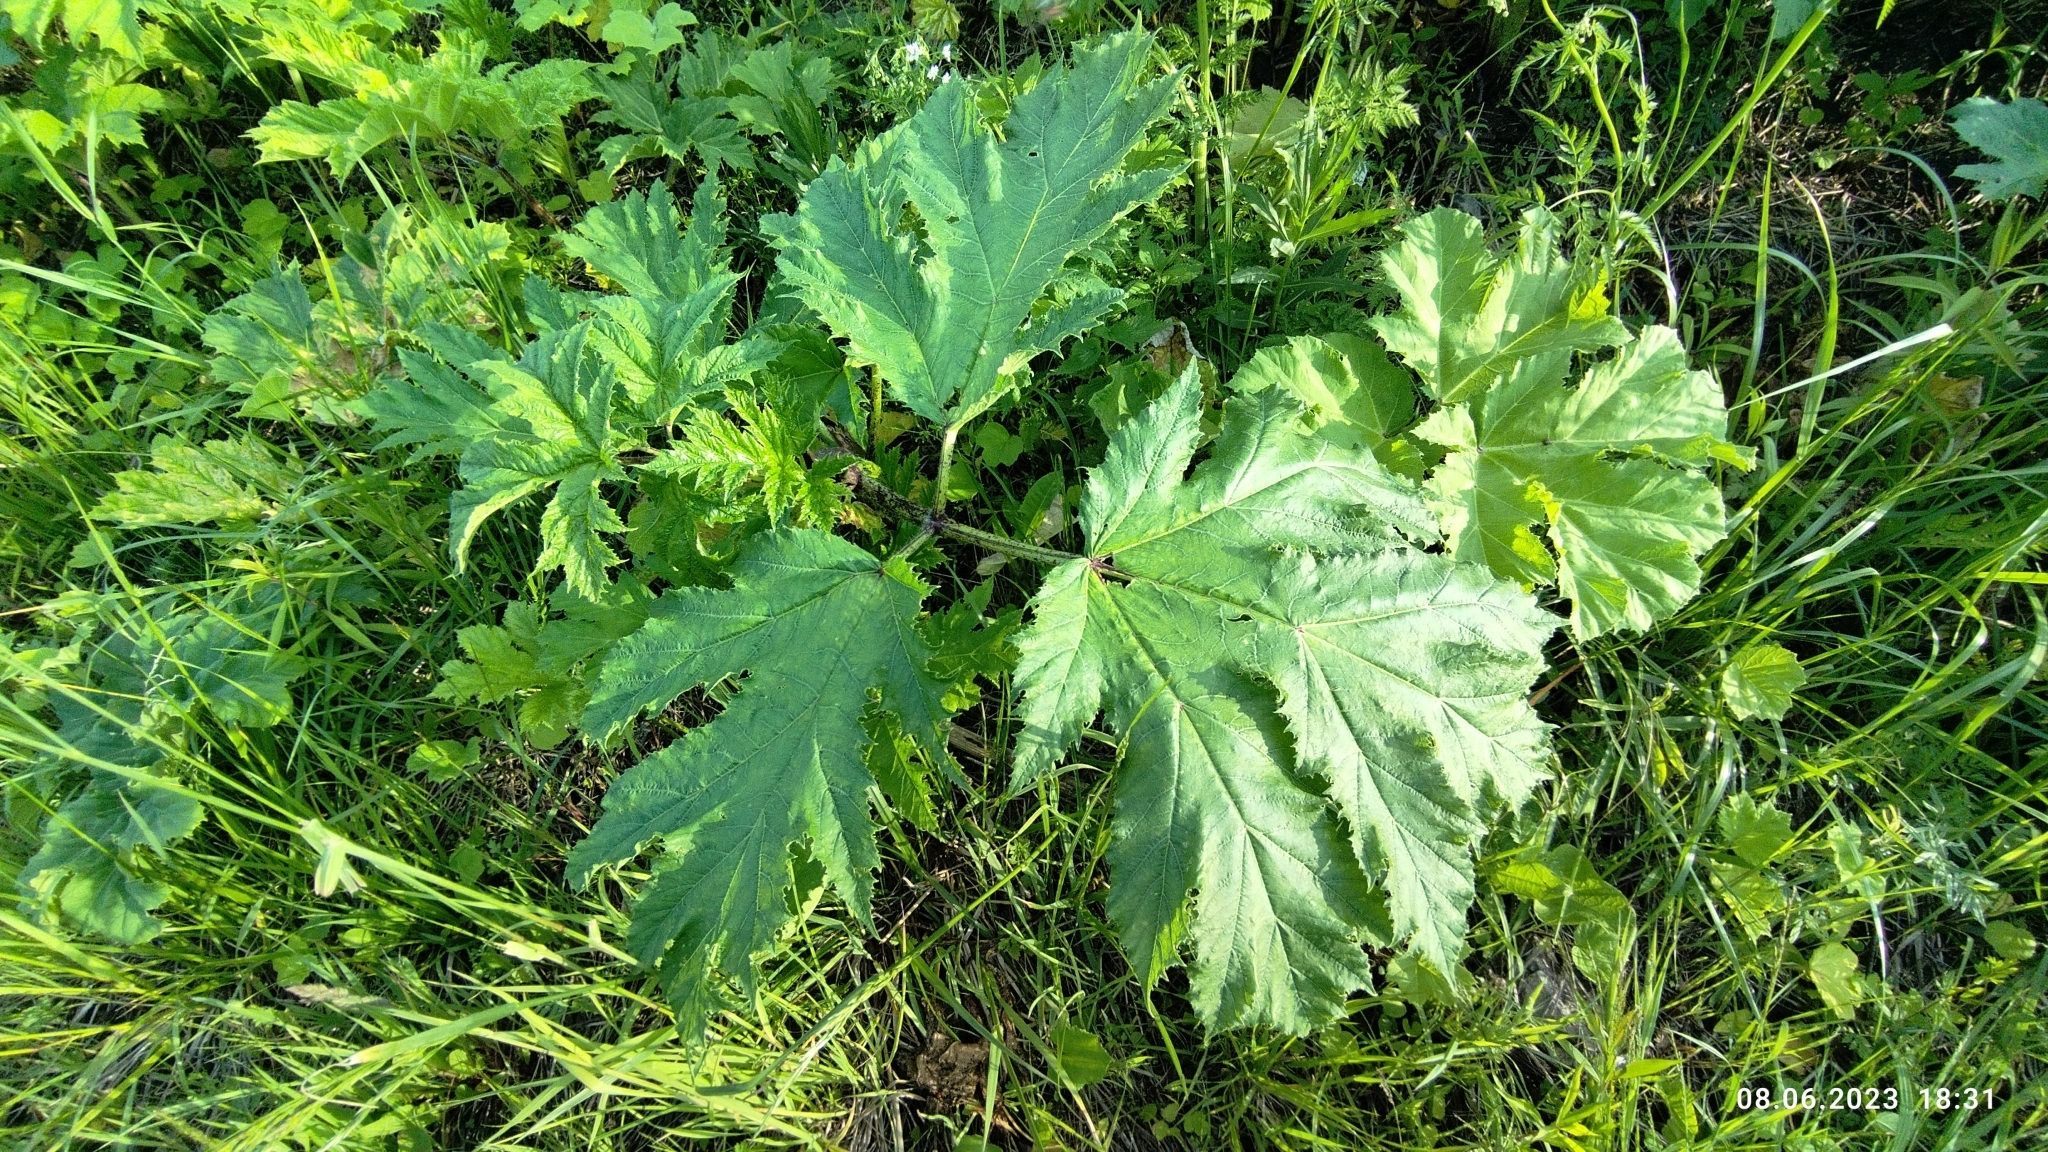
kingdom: Plantae
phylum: Tracheophyta
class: Magnoliopsida
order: Apiales
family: Apiaceae
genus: Heracleum
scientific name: Heracleum sosnowskyi
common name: Sosnowsky's hogweed
